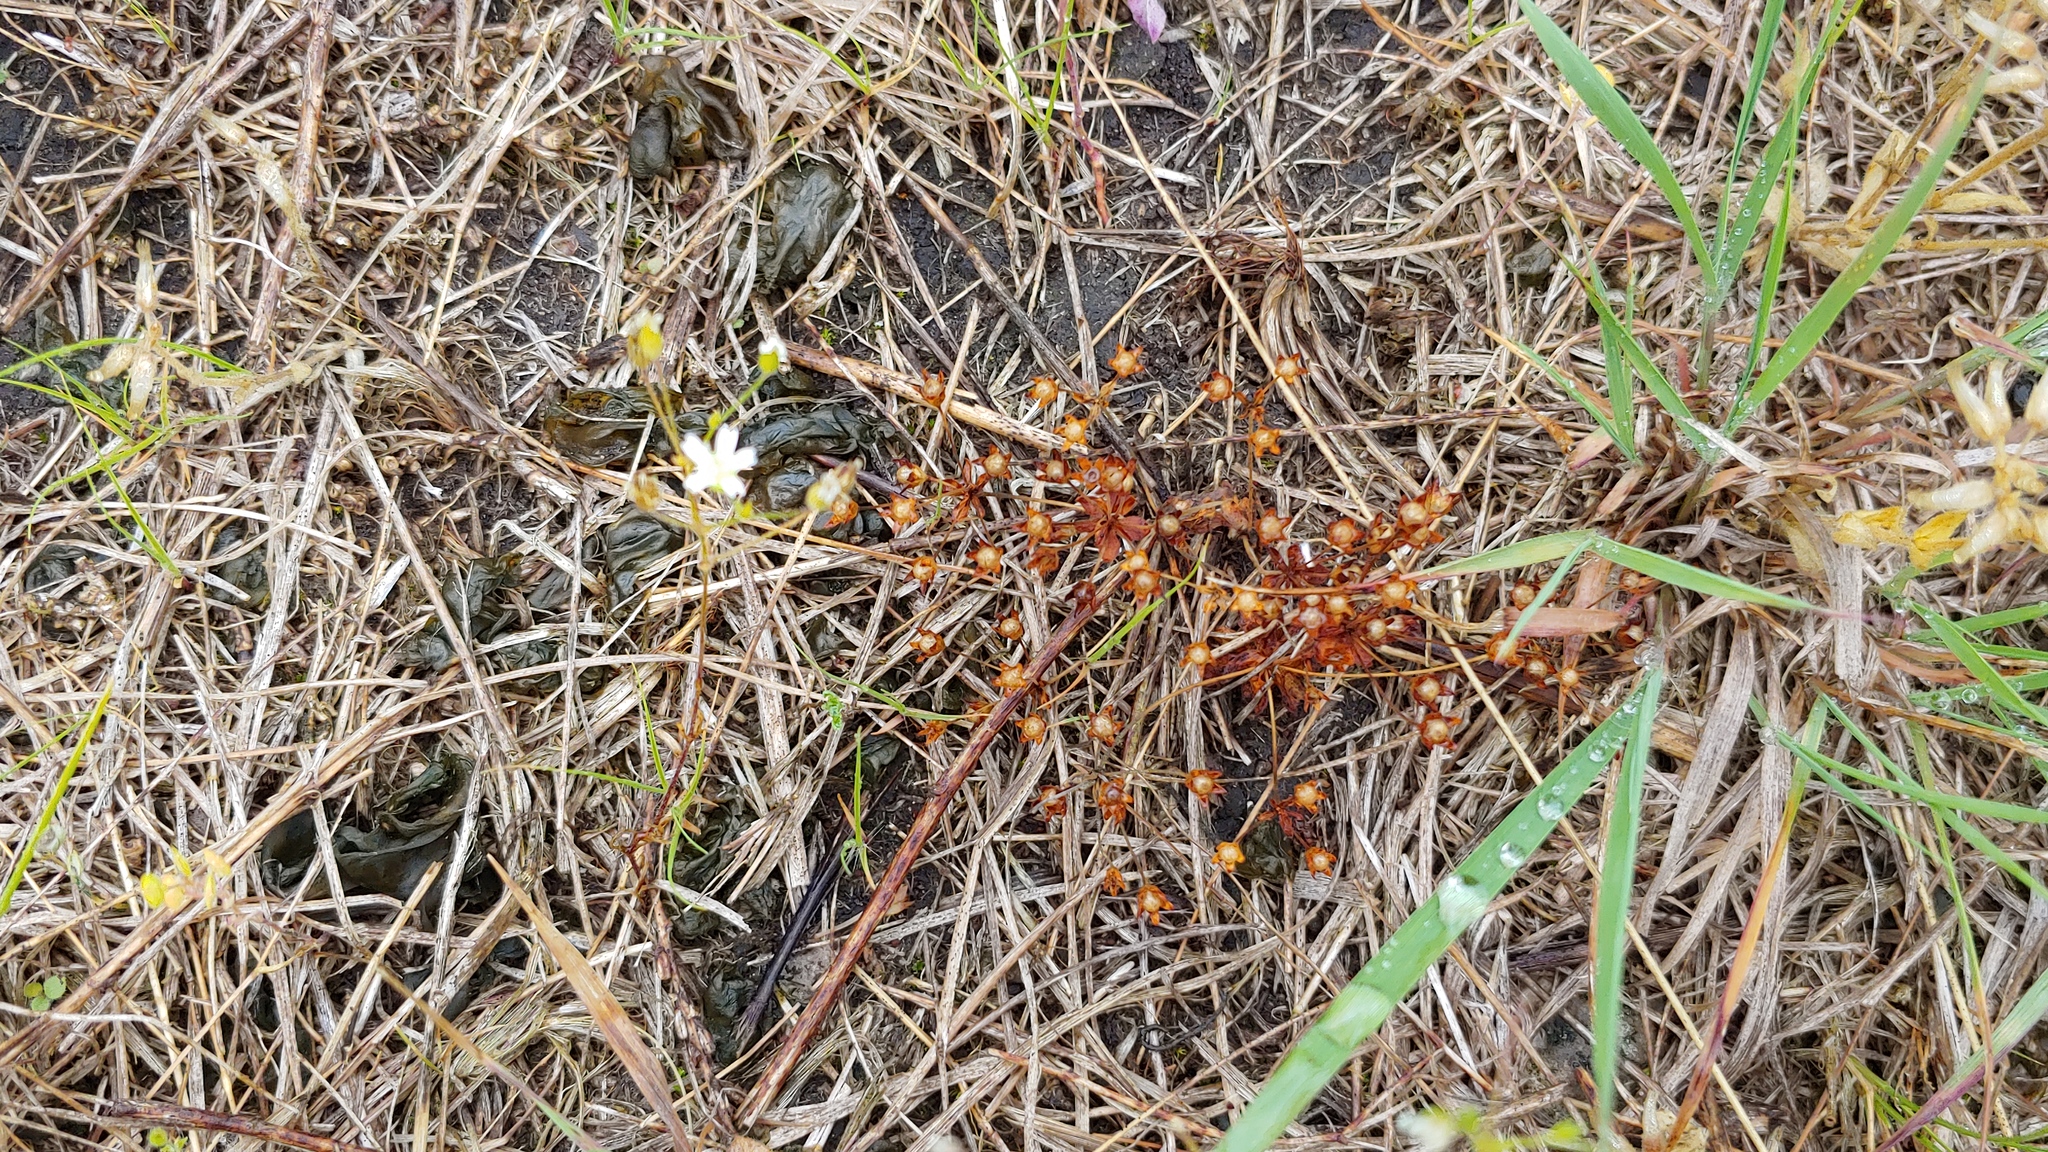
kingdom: Plantae
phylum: Tracheophyta
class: Magnoliopsida
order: Ericales
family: Primulaceae
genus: Androsace
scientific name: Androsace occidentalis
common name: West rock-jasmine
